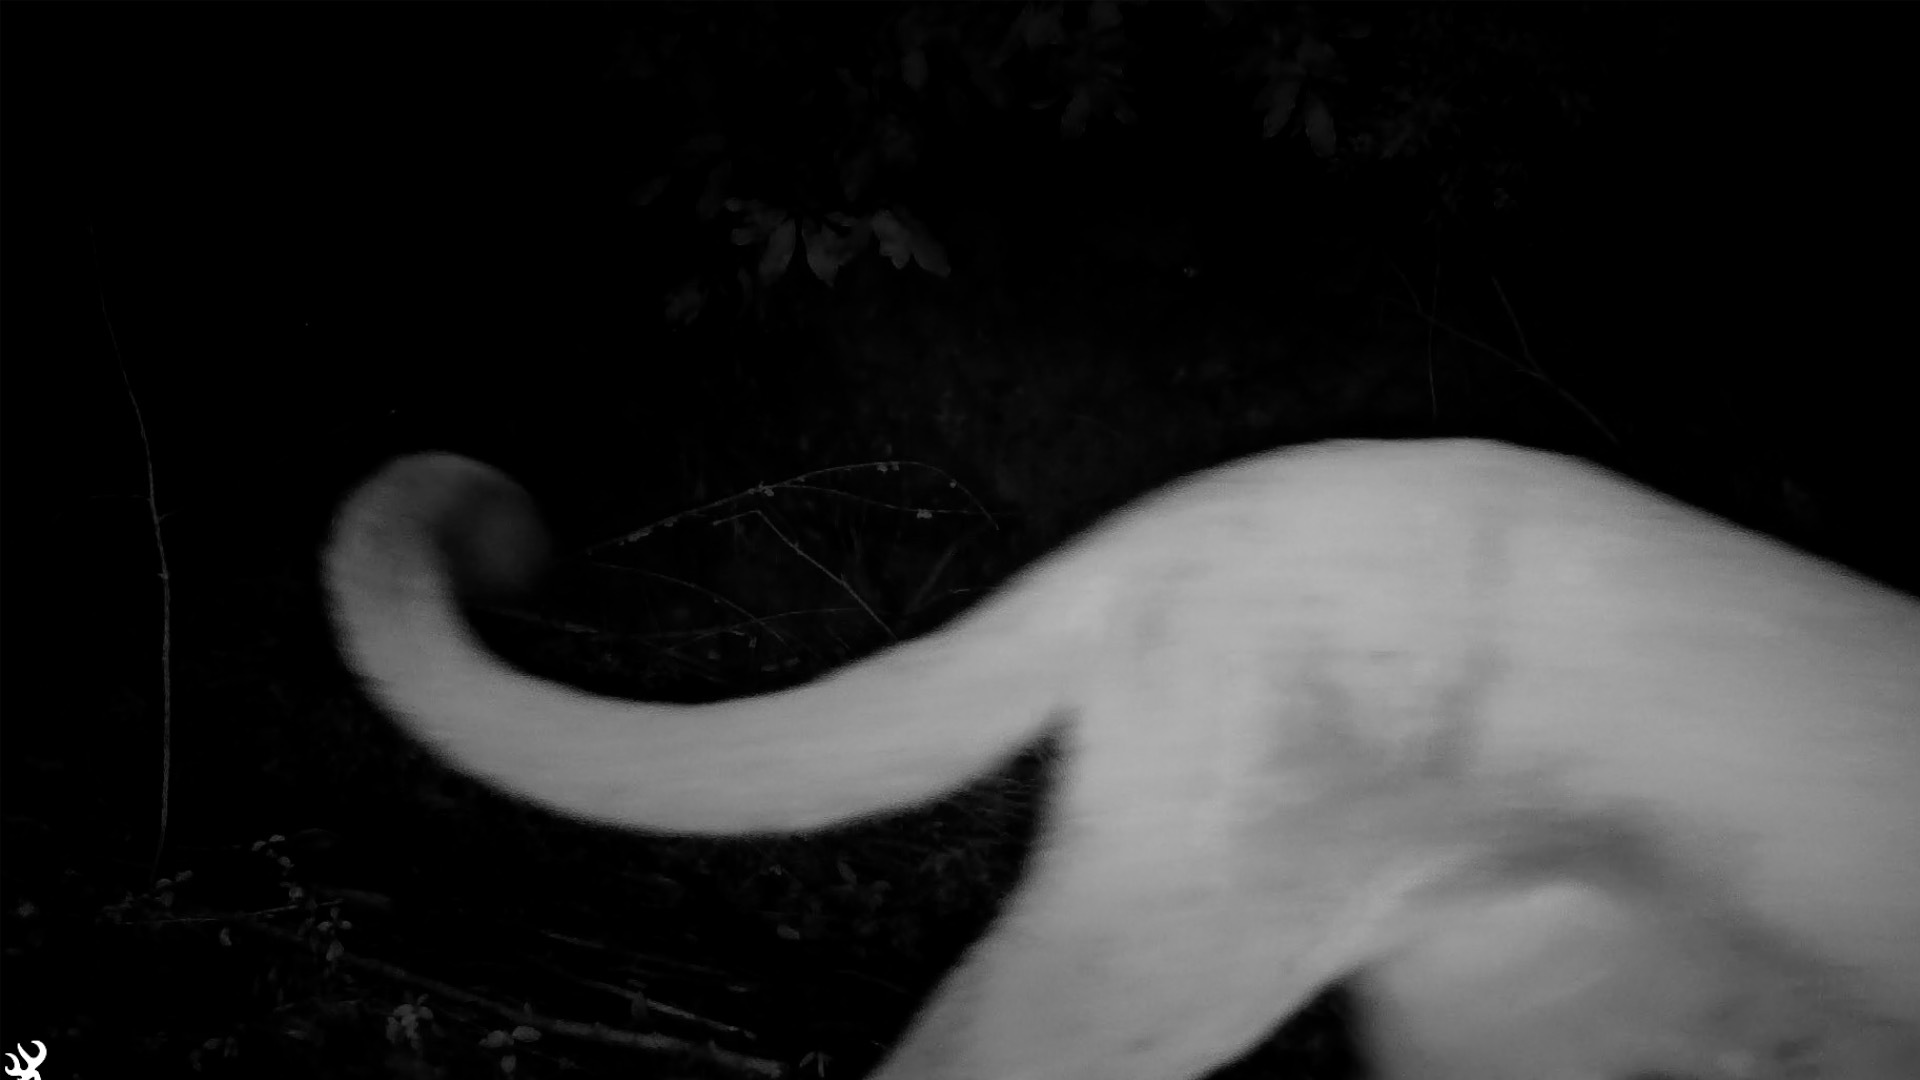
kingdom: Animalia
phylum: Chordata
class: Mammalia
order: Carnivora
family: Felidae
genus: Puma
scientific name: Puma concolor
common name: Puma
